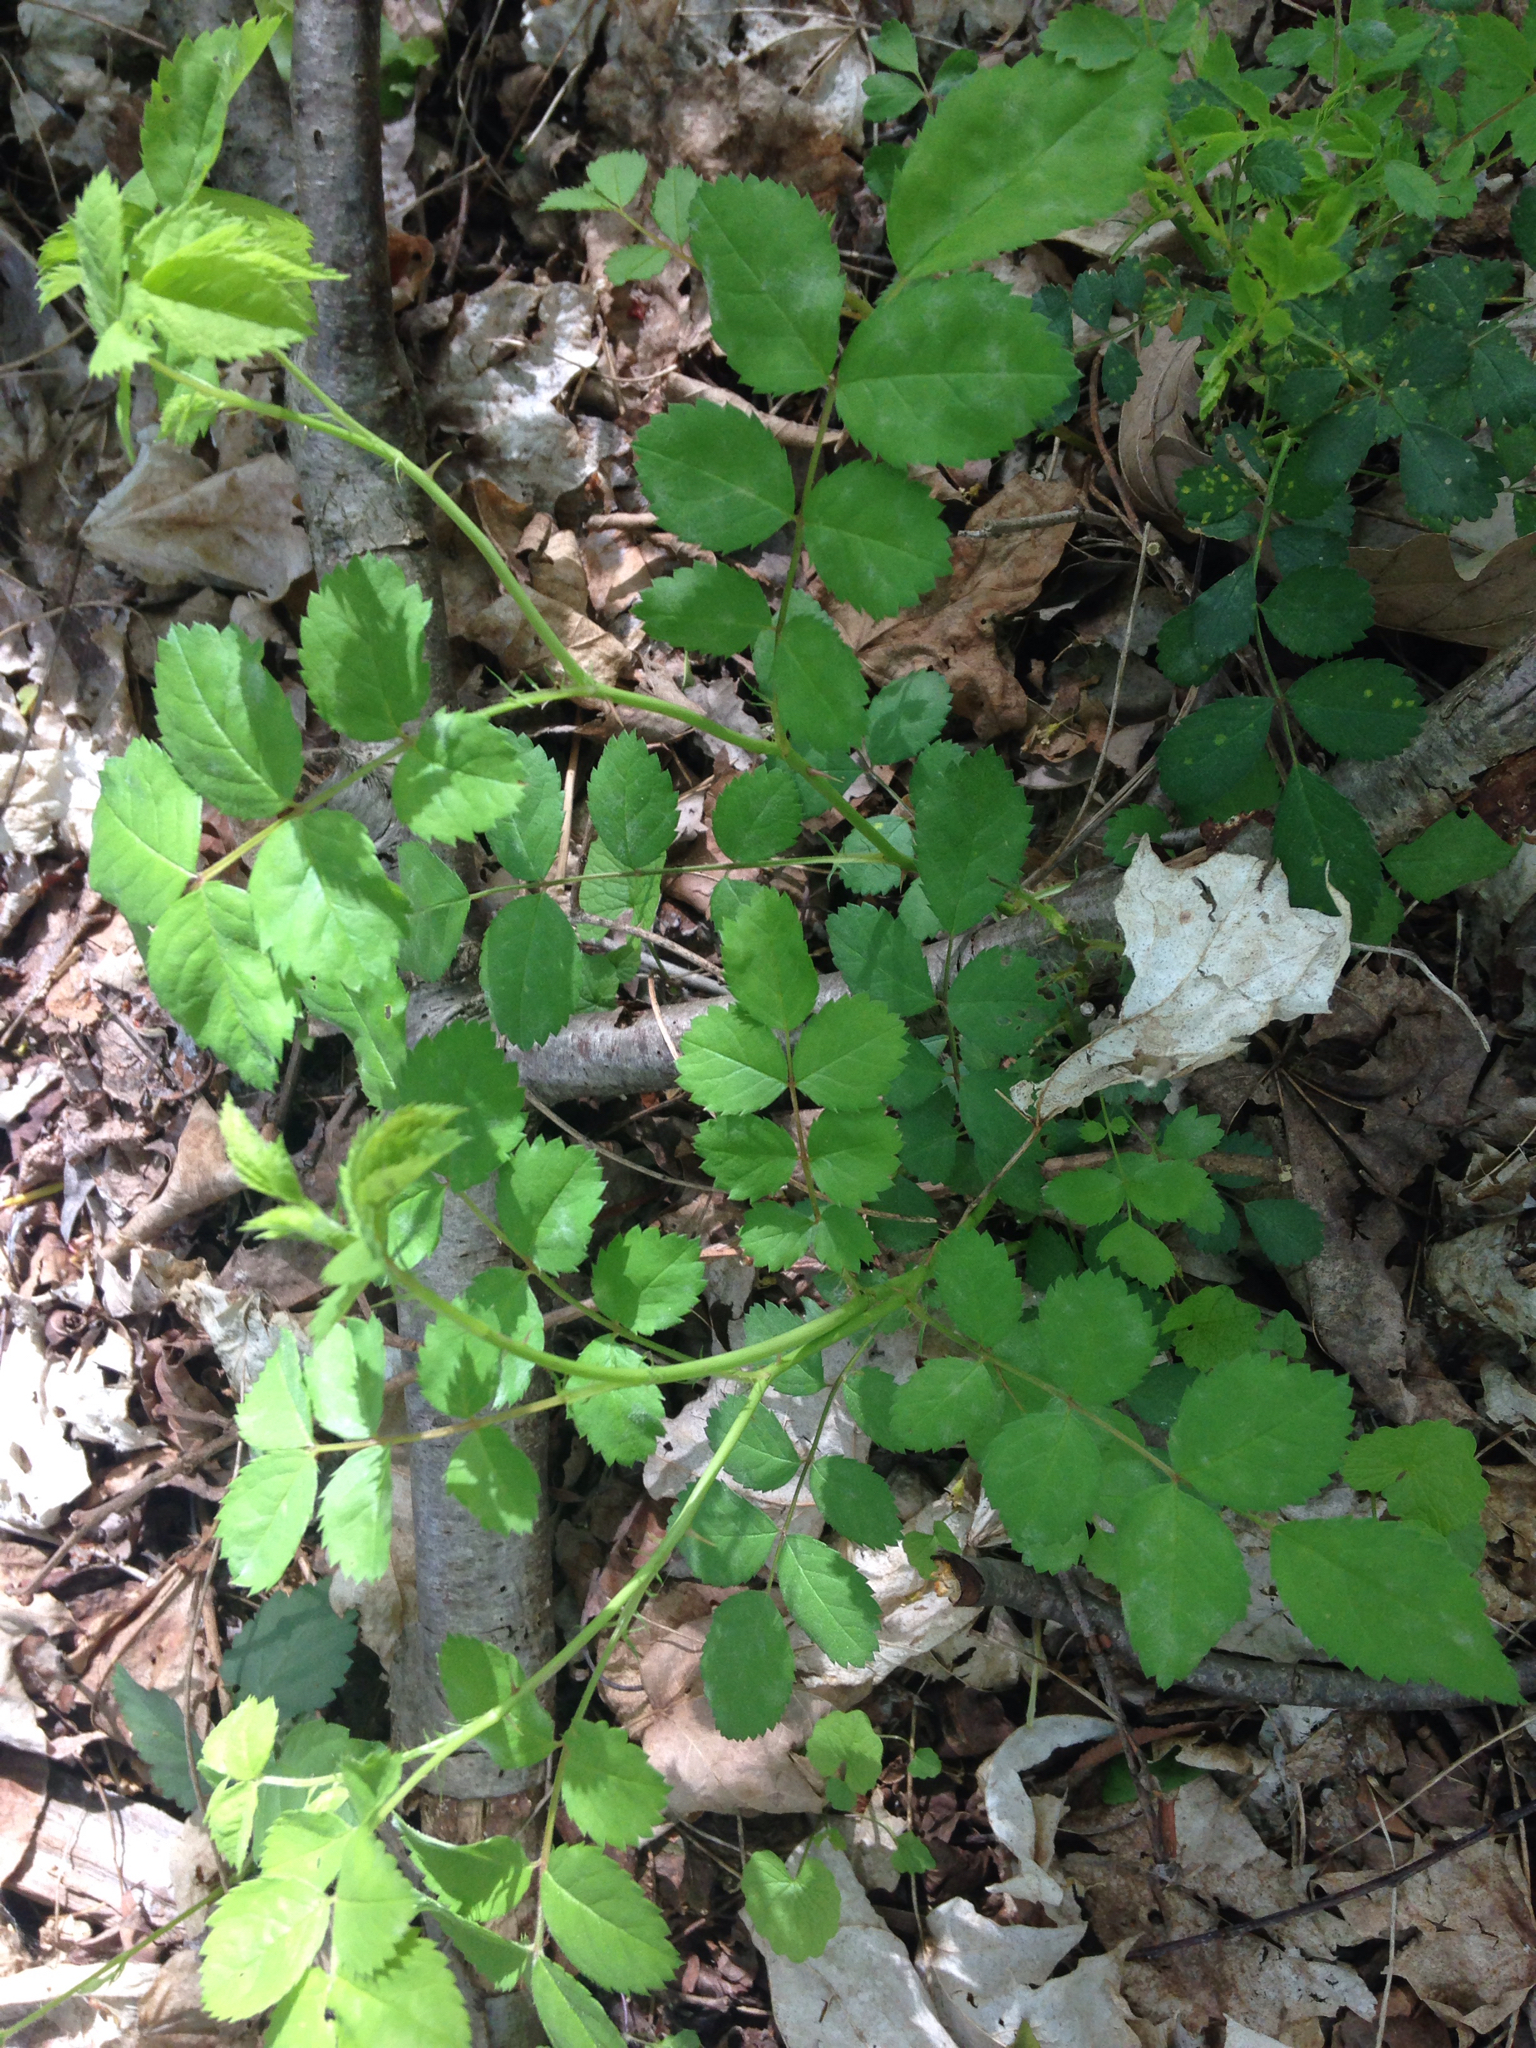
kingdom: Plantae
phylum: Tracheophyta
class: Magnoliopsida
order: Rosales
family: Rosaceae
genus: Rosa
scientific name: Rosa multiflora
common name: Multiflora rose
